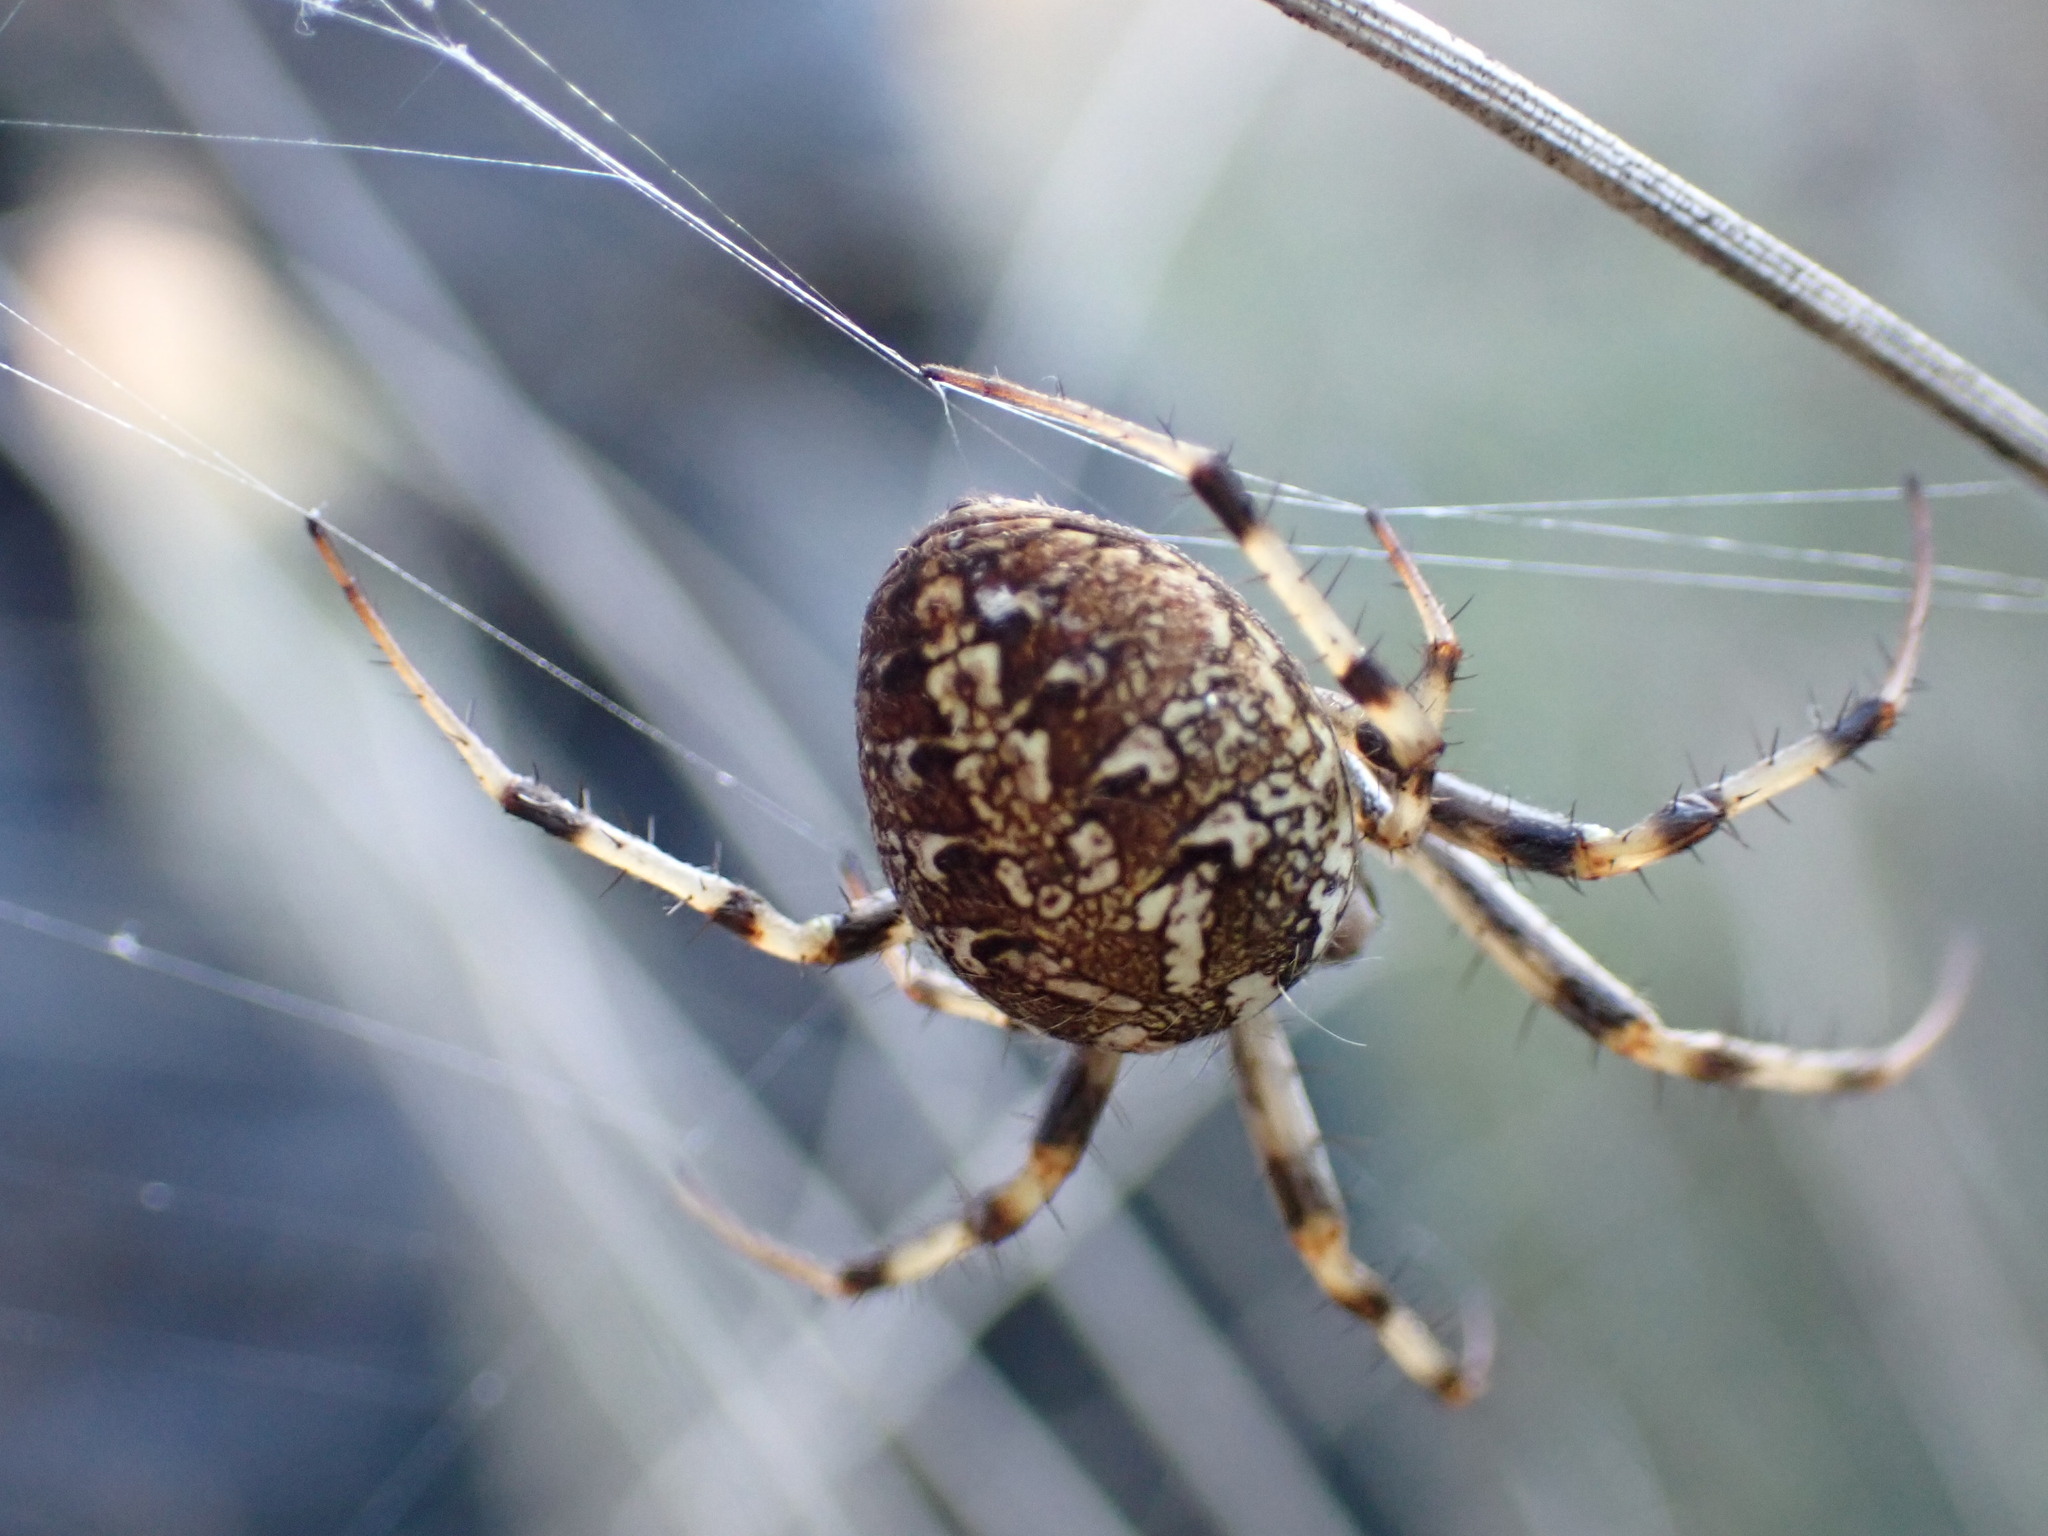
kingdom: Animalia
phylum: Arthropoda
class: Arachnida
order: Araneae
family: Araneidae
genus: Neoscona
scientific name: Neoscona byzanthina
